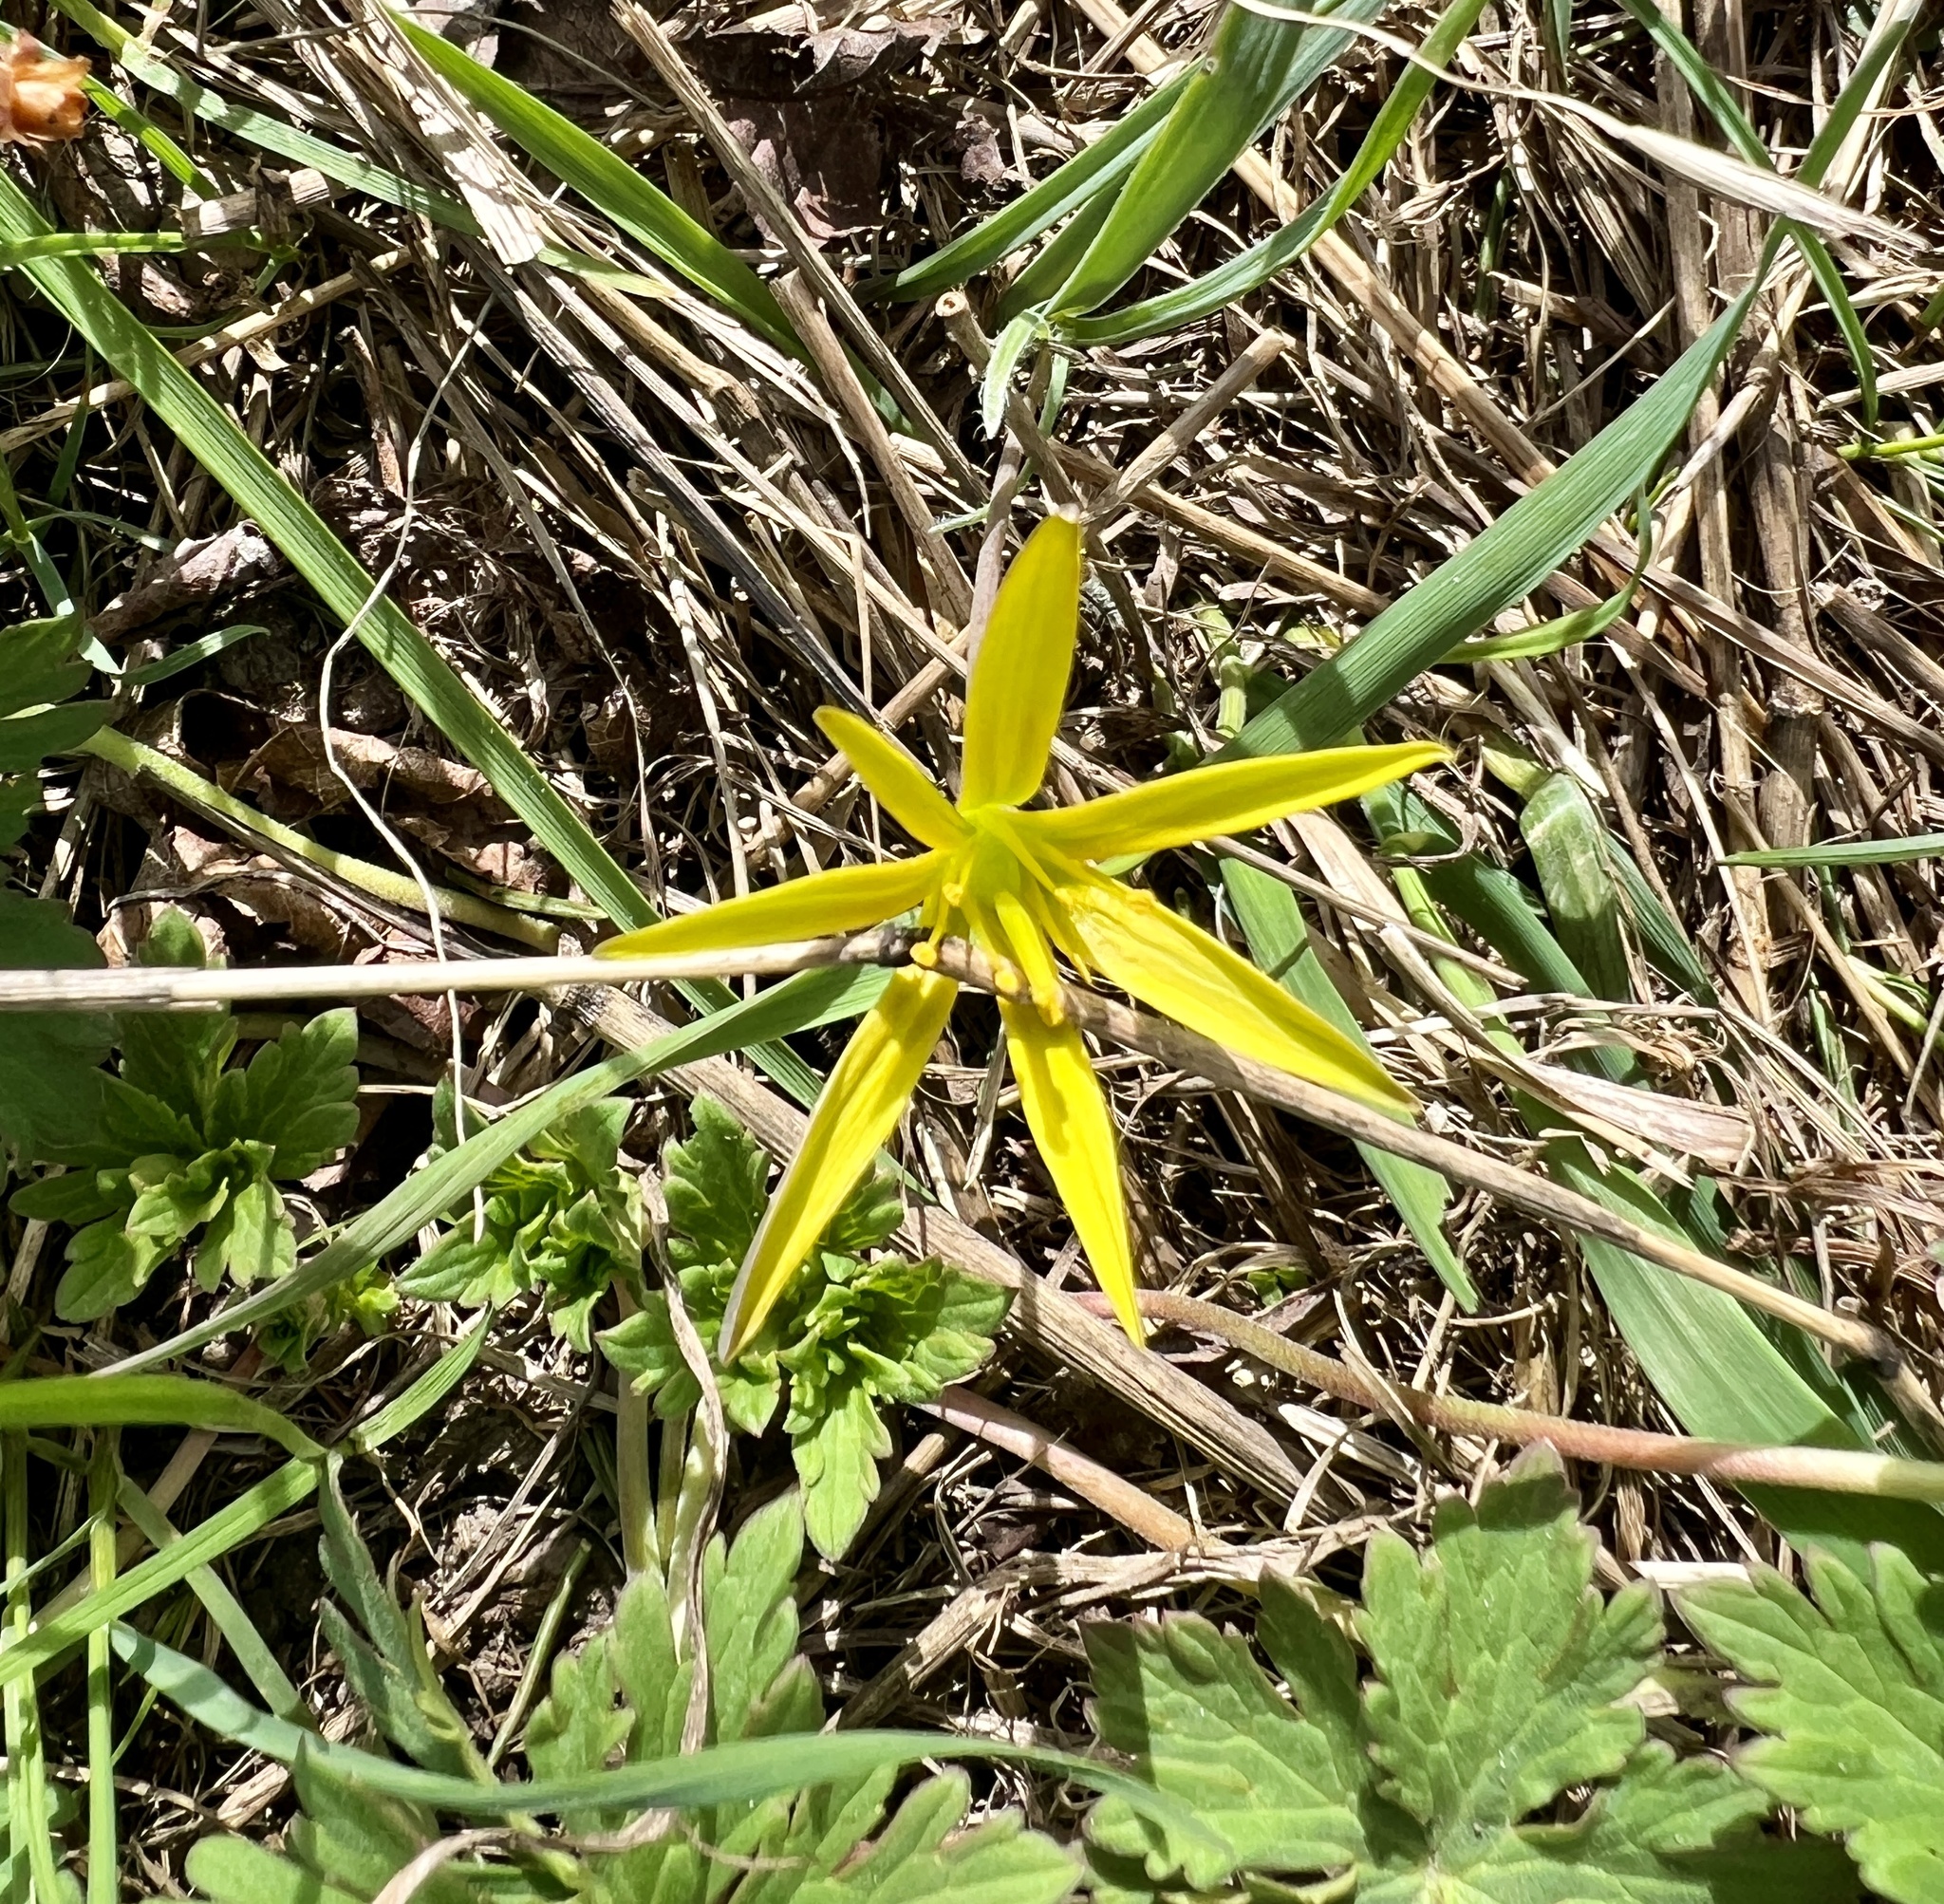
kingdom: Plantae
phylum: Tracheophyta
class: Liliopsida
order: Liliales
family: Liliaceae
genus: Gagea
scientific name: Gagea pratensis
